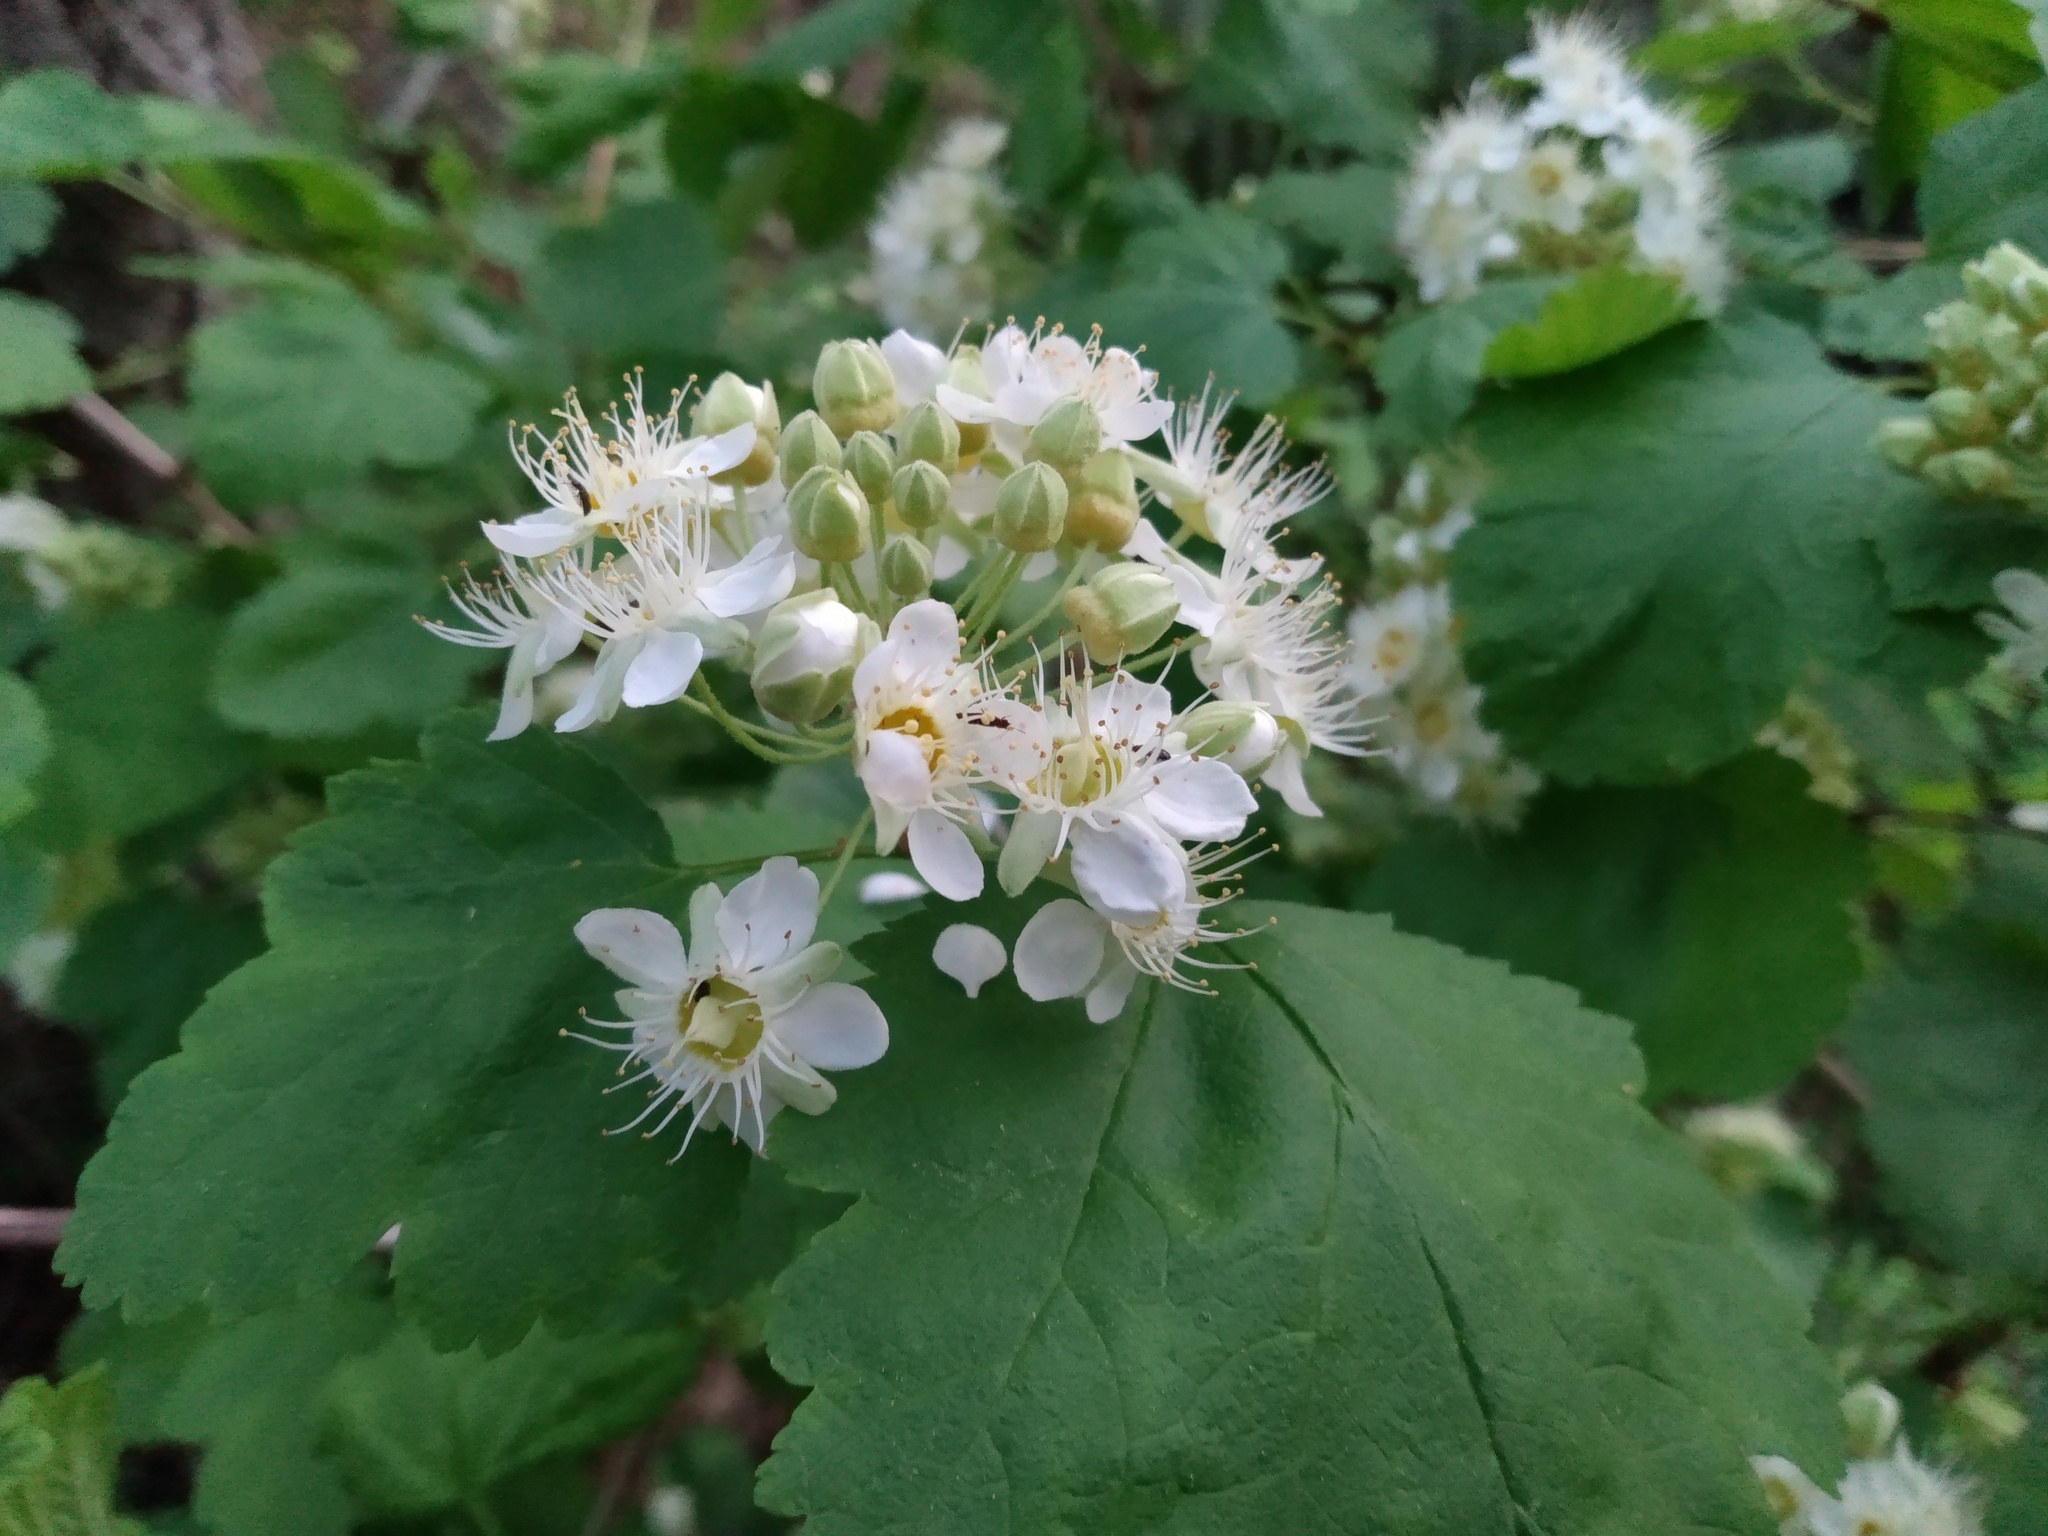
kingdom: Plantae
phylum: Tracheophyta
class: Magnoliopsida
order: Rosales
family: Rosaceae
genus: Physocarpus
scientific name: Physocarpus malvaceus
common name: Mallow ninebark
